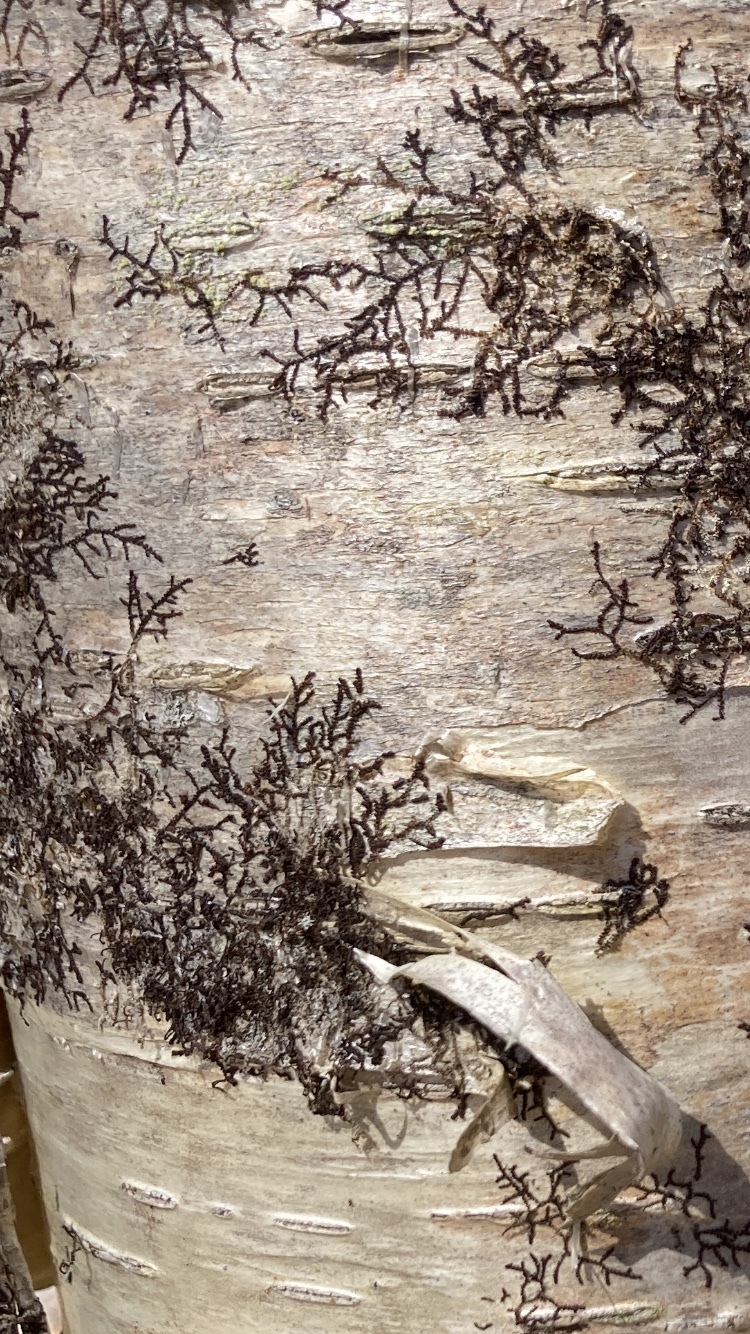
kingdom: Plantae
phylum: Marchantiophyta
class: Jungermanniopsida
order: Porellales
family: Frullaniaceae
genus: Frullania
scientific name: Frullania eboracensis
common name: New york scalewort
